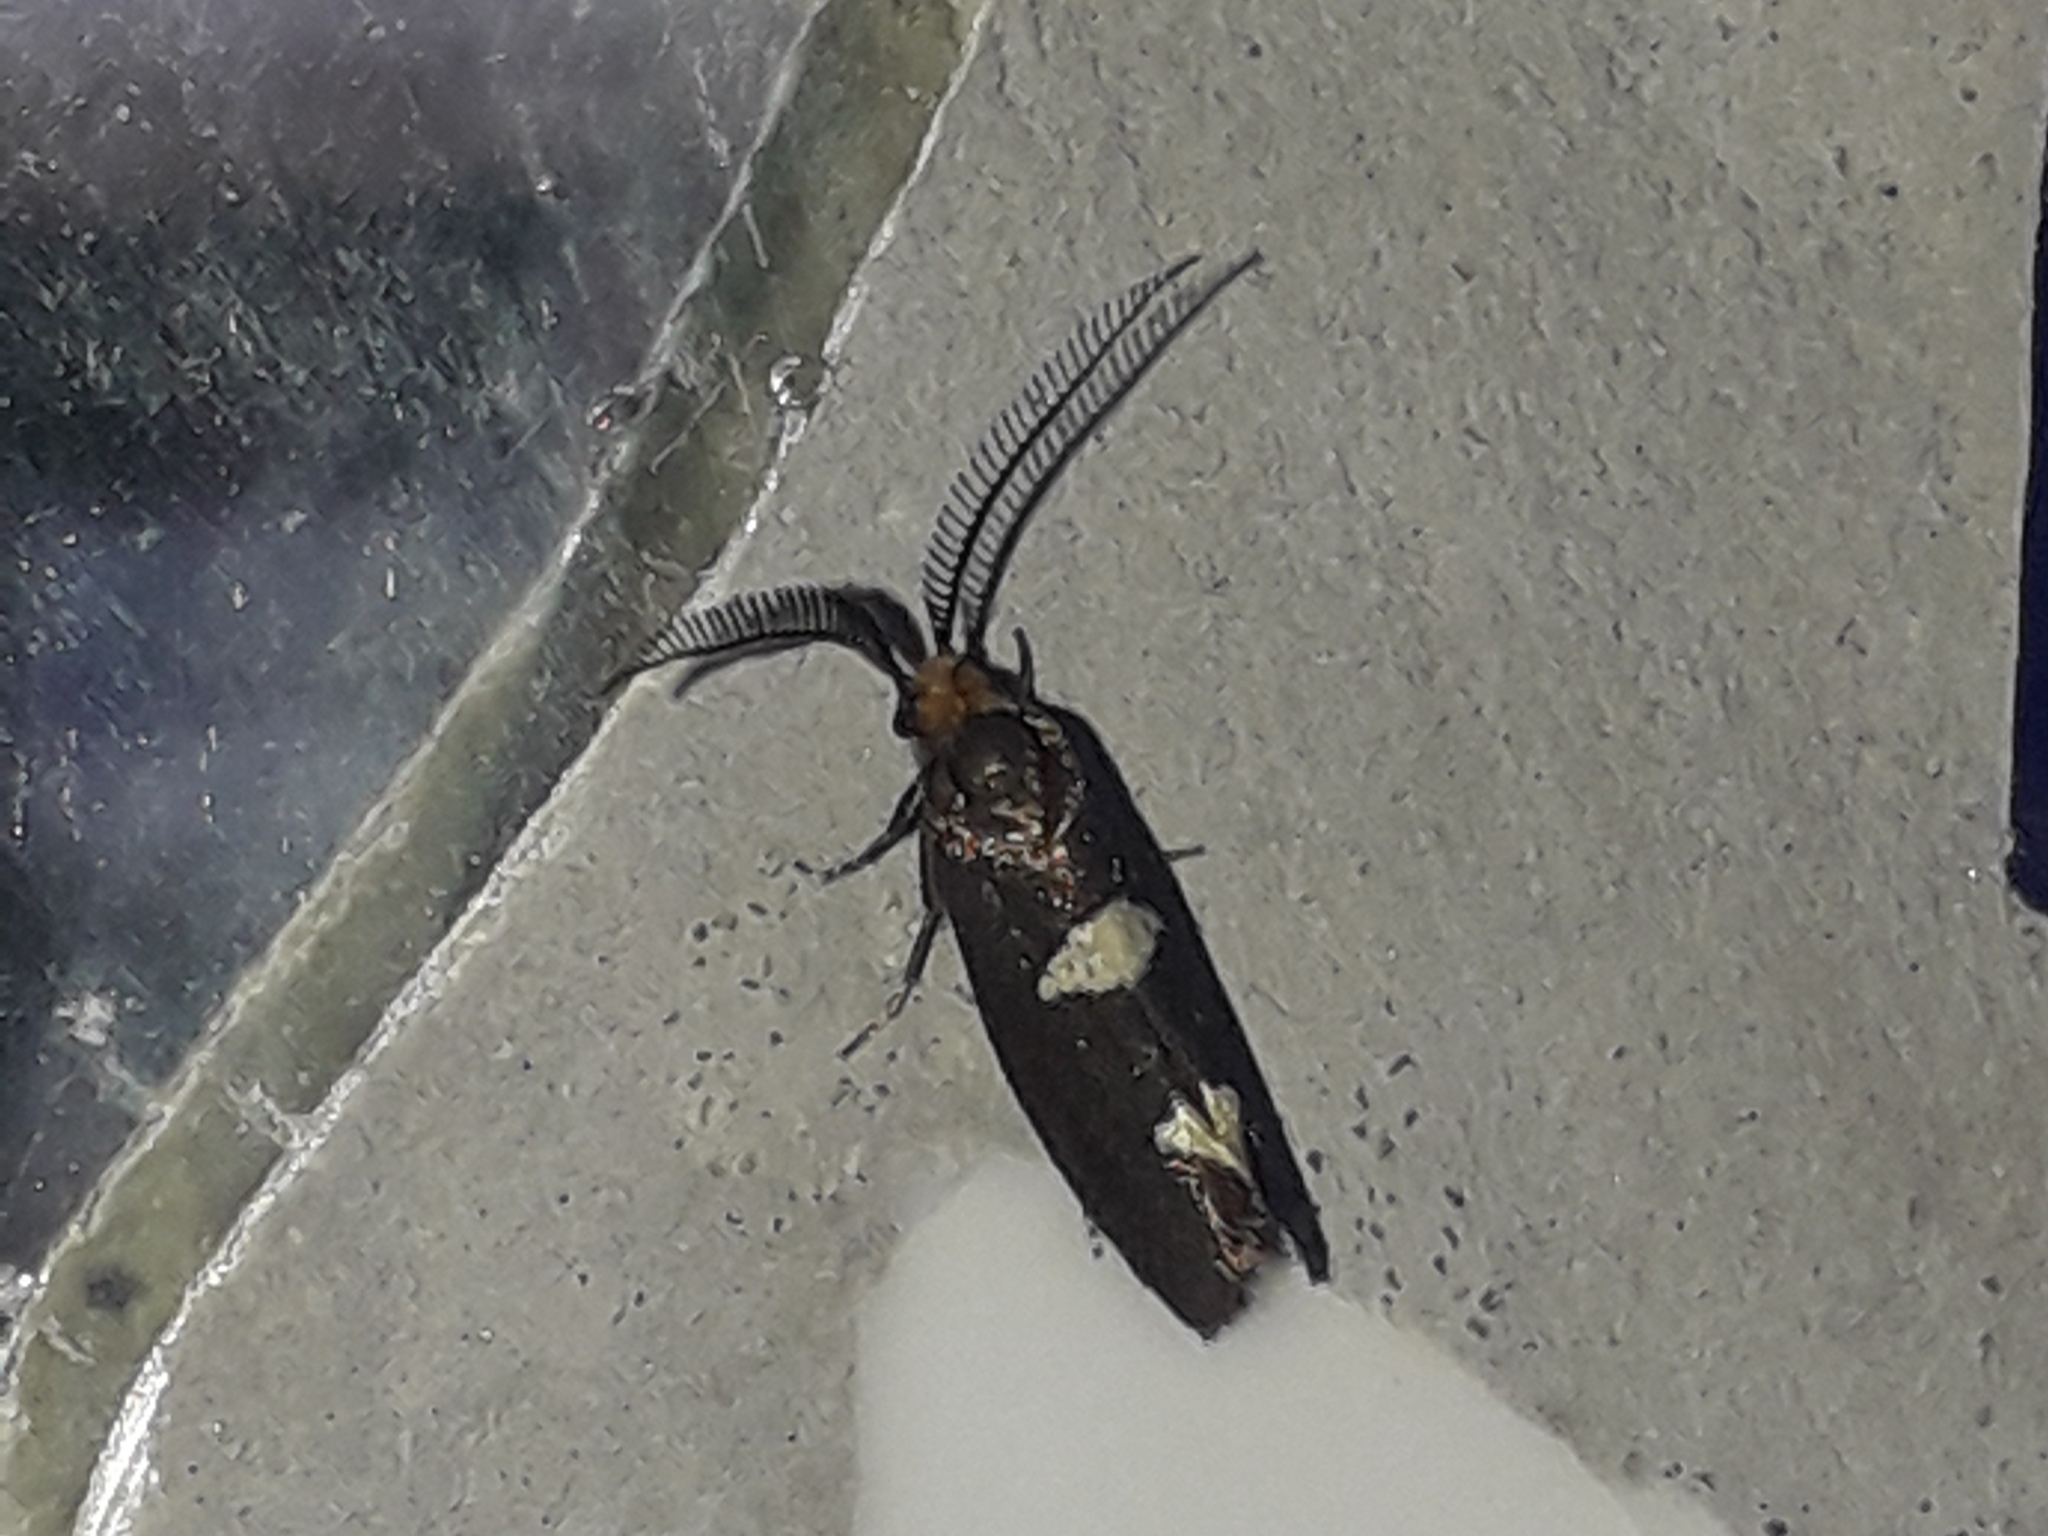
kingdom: Animalia
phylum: Arthropoda
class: Insecta
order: Lepidoptera
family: Incurvariidae
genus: Incurvaria
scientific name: Incurvaria masculella
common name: Feathered leaf-cutter
